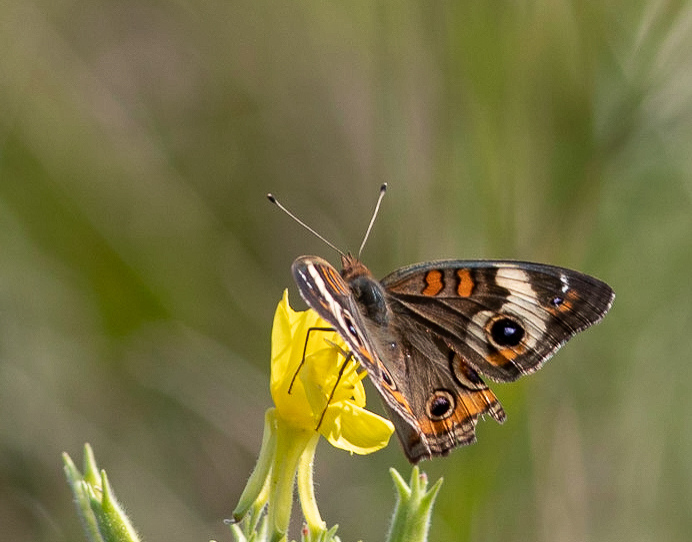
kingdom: Animalia
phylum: Arthropoda
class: Insecta
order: Lepidoptera
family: Nymphalidae
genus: Junonia
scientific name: Junonia coenia
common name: Common buckeye
